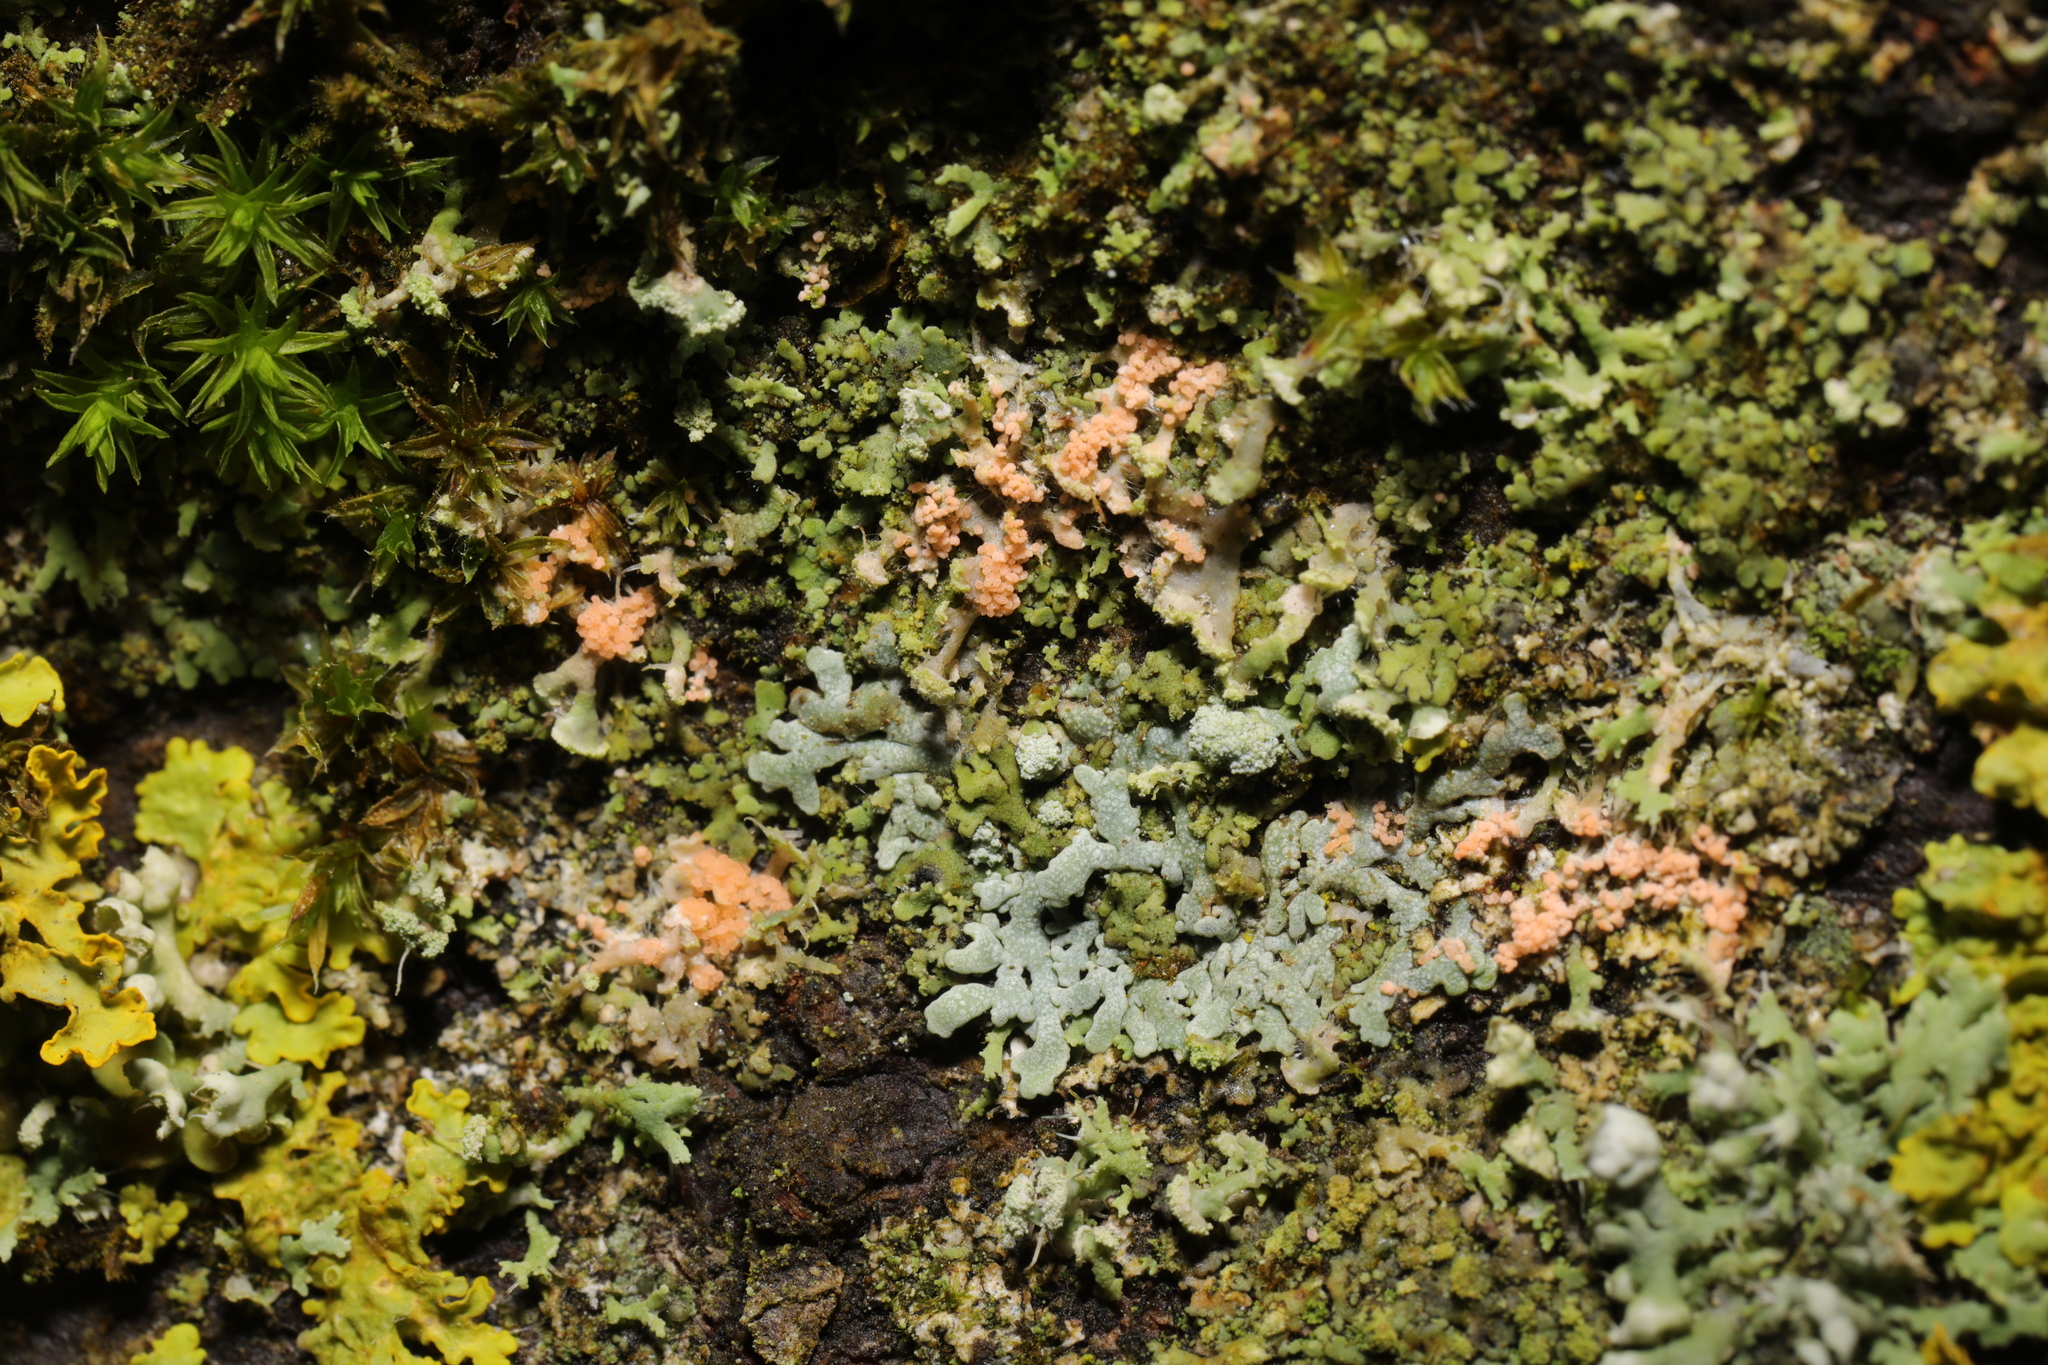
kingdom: Fungi
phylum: Basidiomycota
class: Agaricomycetes
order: Corticiales
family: Corticiaceae
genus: Erythricium
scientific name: Erythricium aurantiacum
